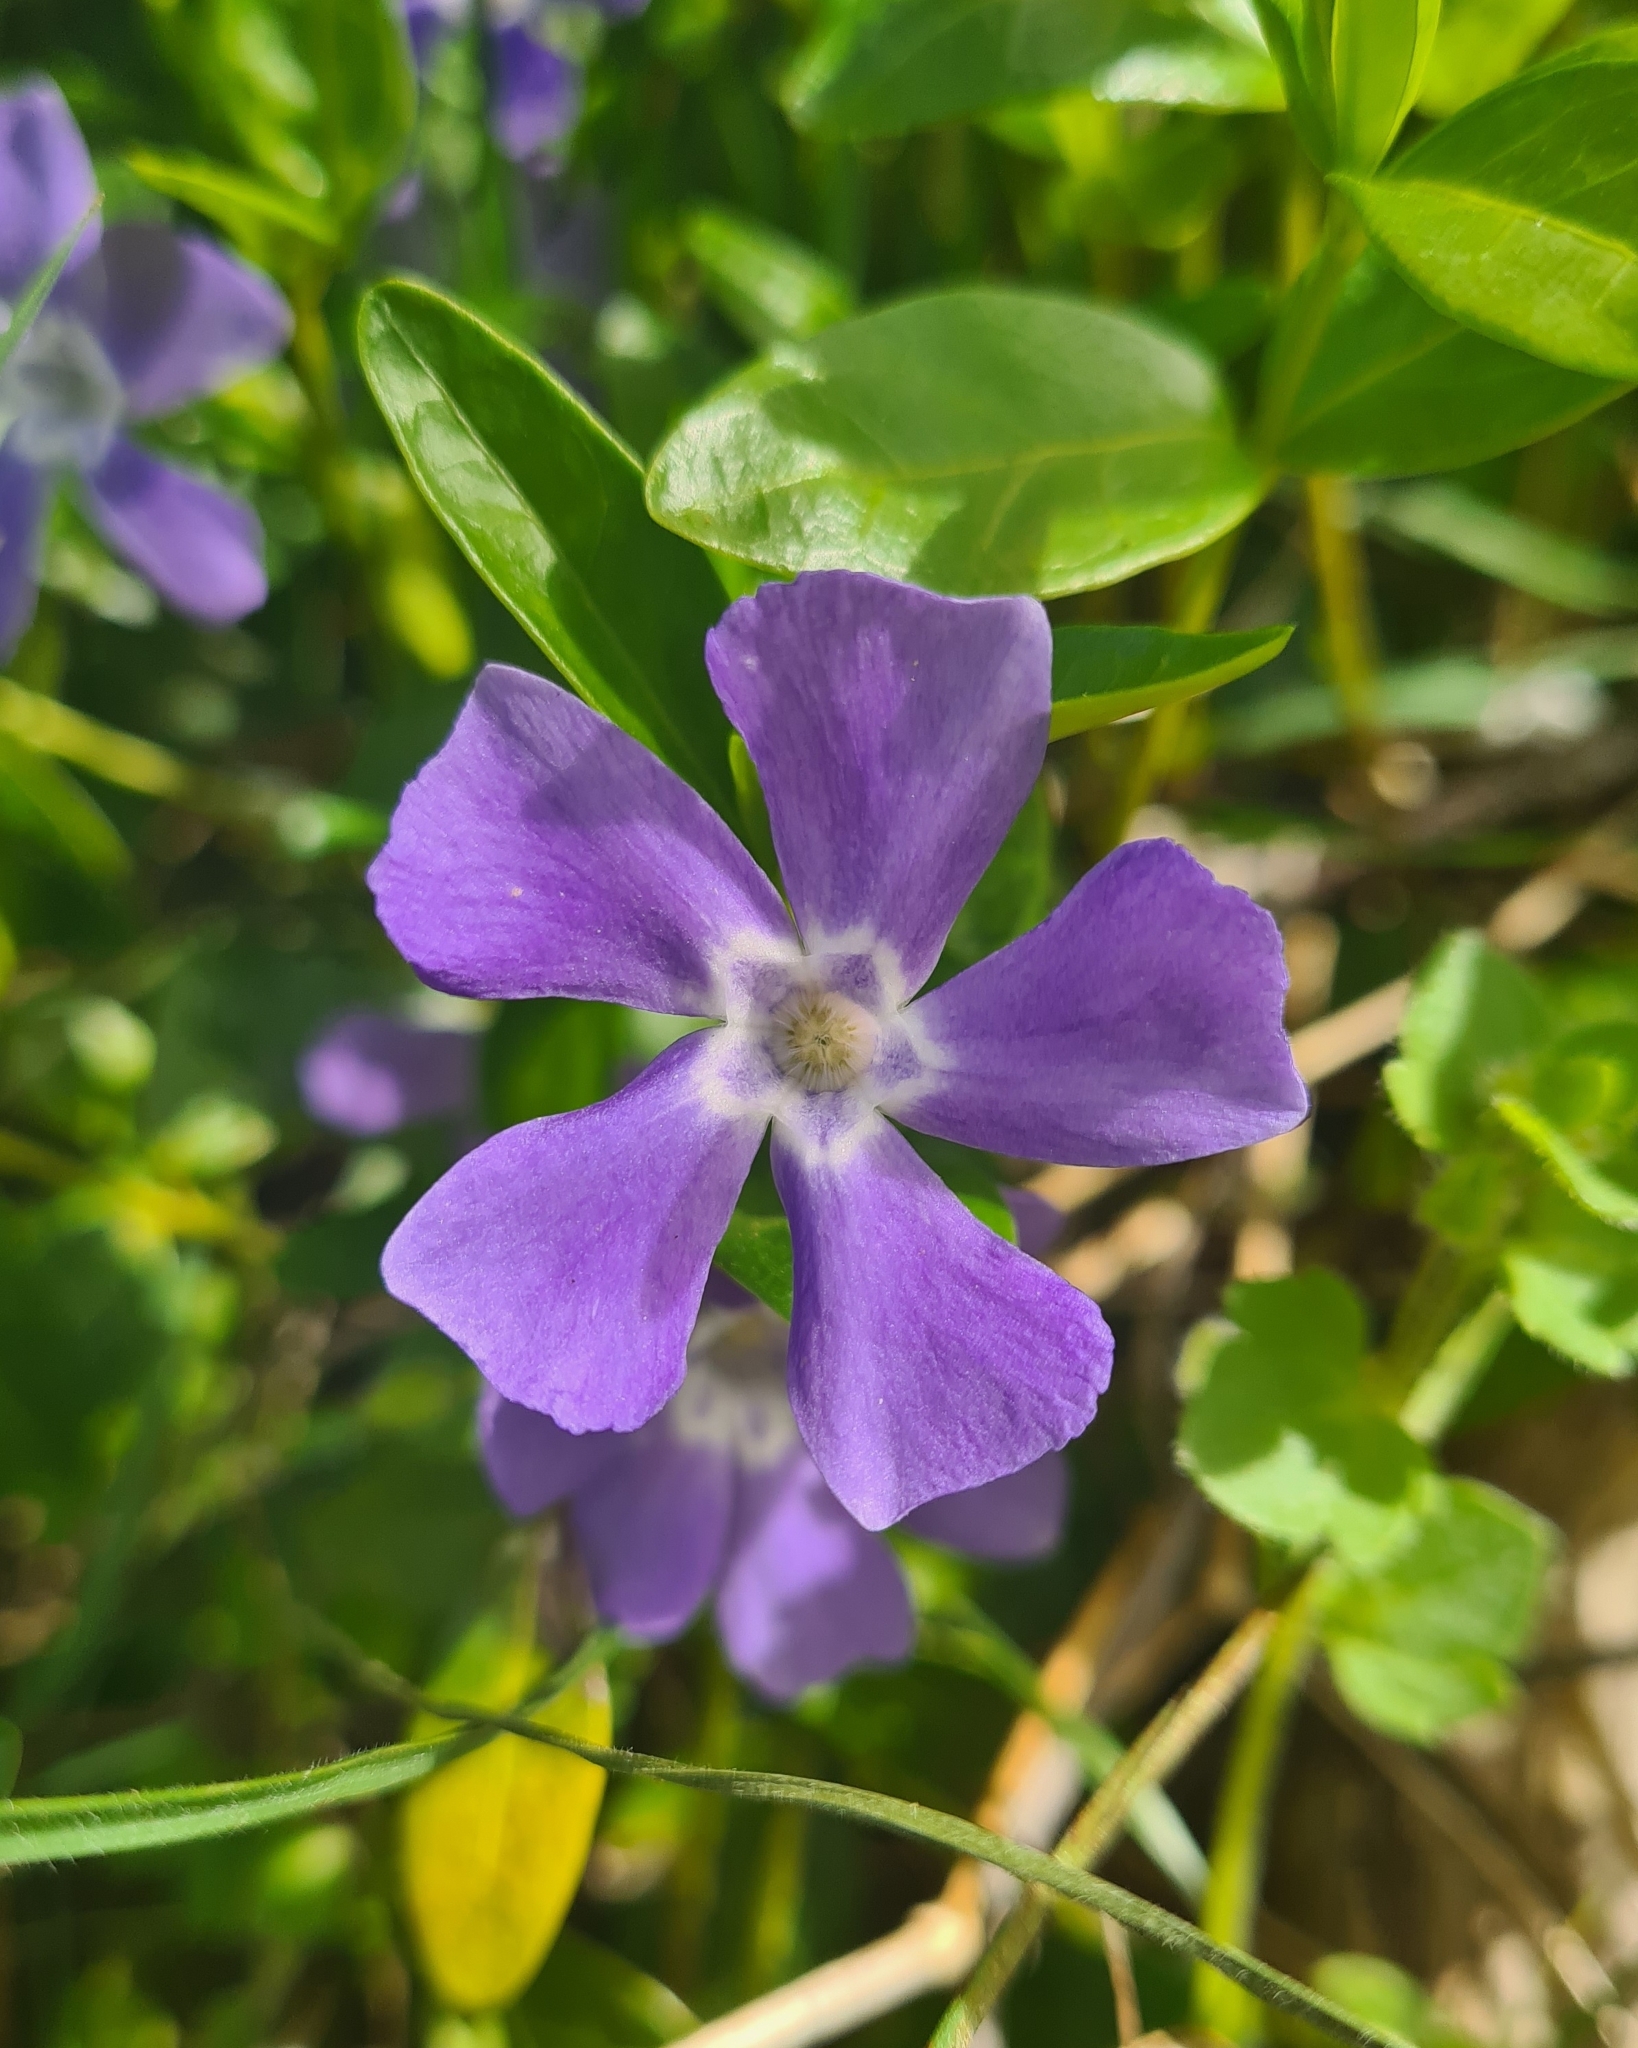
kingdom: Plantae
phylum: Tracheophyta
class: Magnoliopsida
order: Gentianales
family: Apocynaceae
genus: Vinca
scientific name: Vinca minor
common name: Lesser periwinkle
